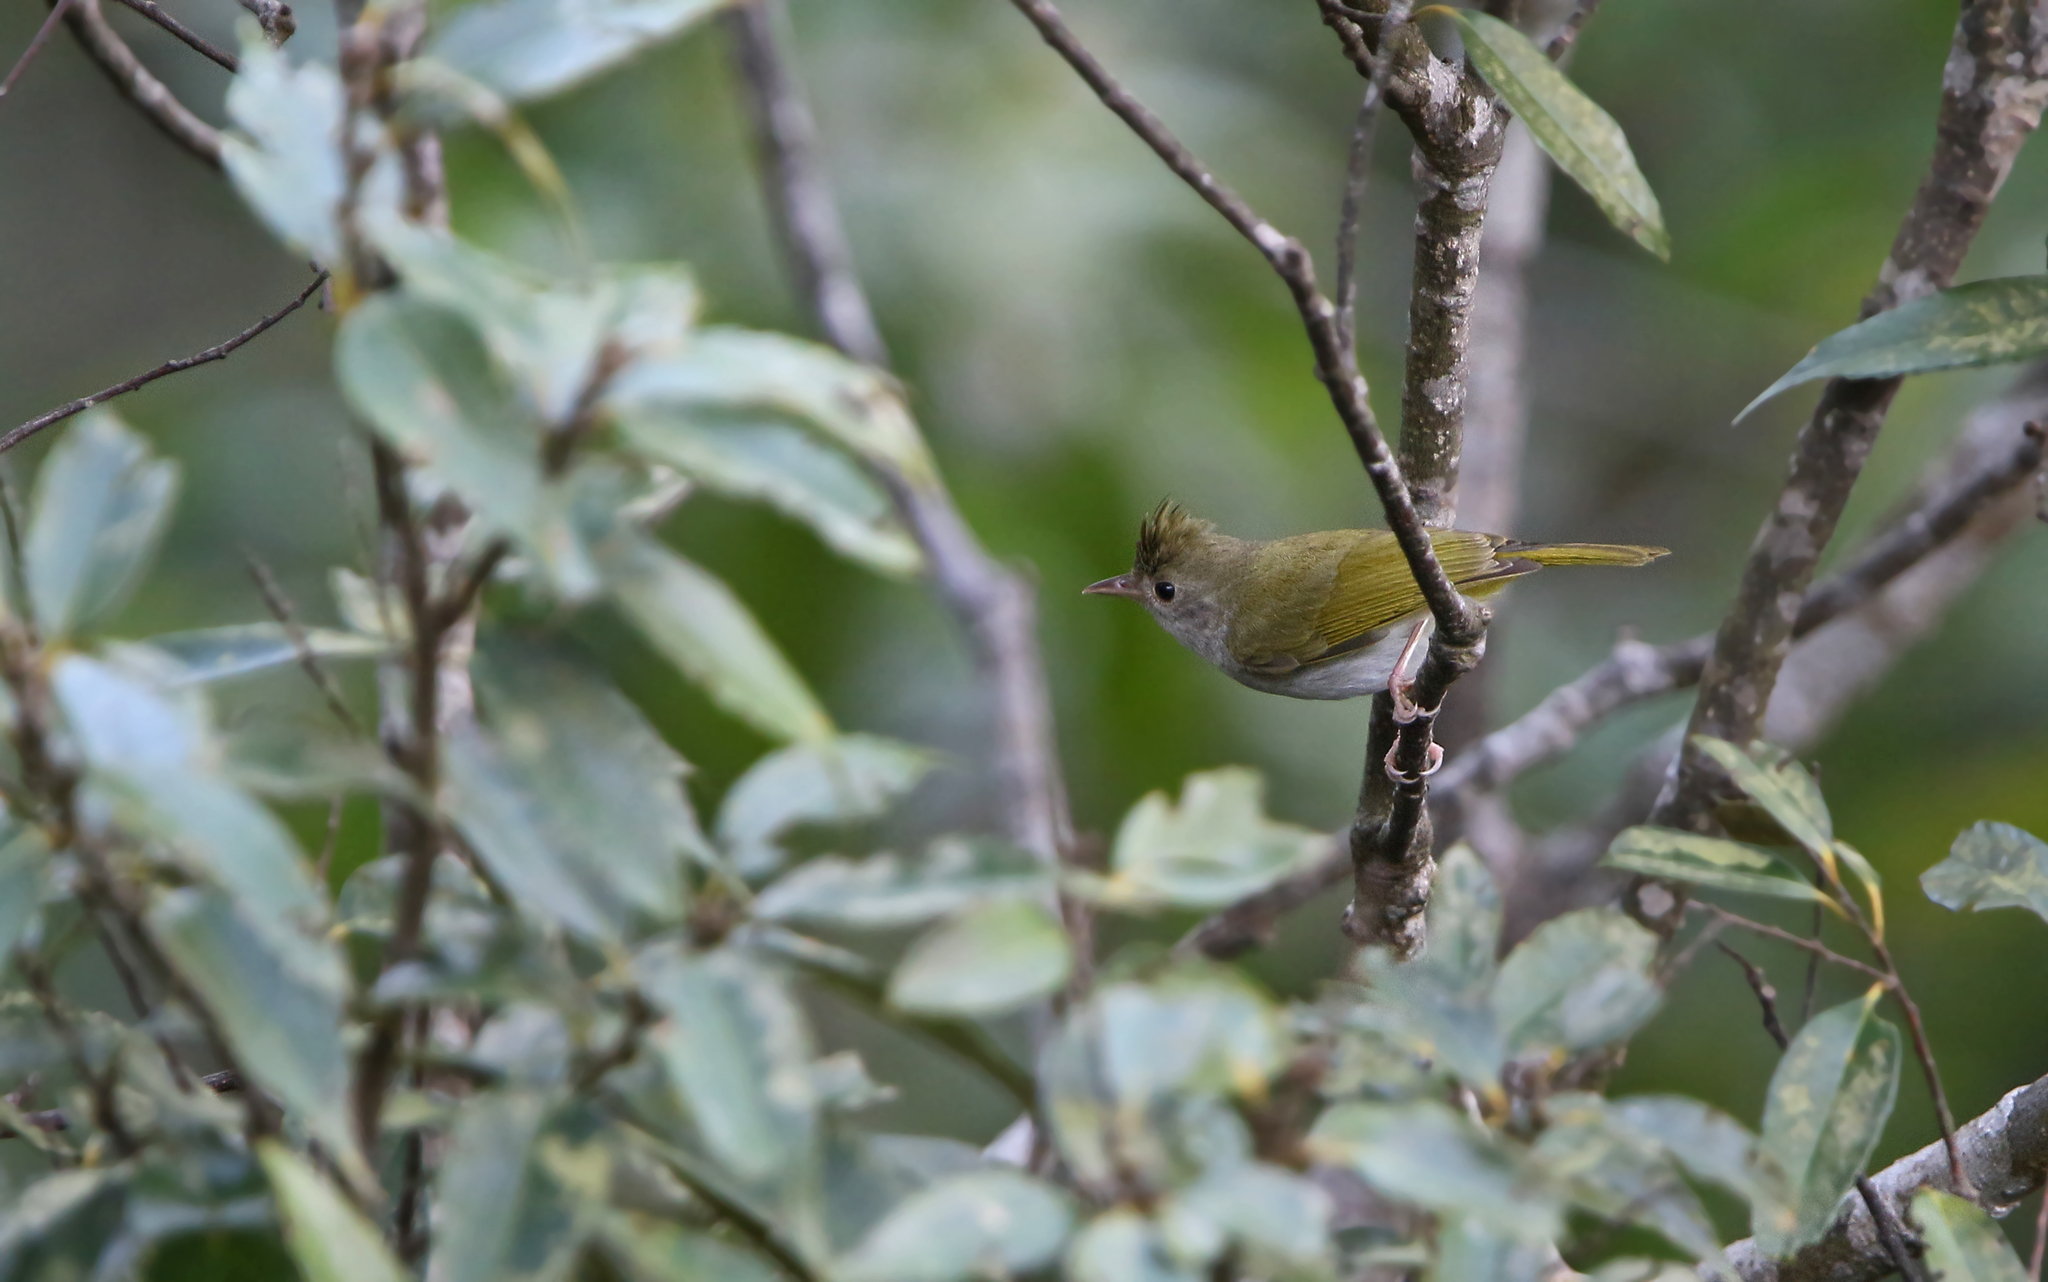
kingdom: Animalia
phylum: Chordata
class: Aves
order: Passeriformes
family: Vireonidae
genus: Erpornis
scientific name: Erpornis zantholeuca
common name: White-bellied erpornis
